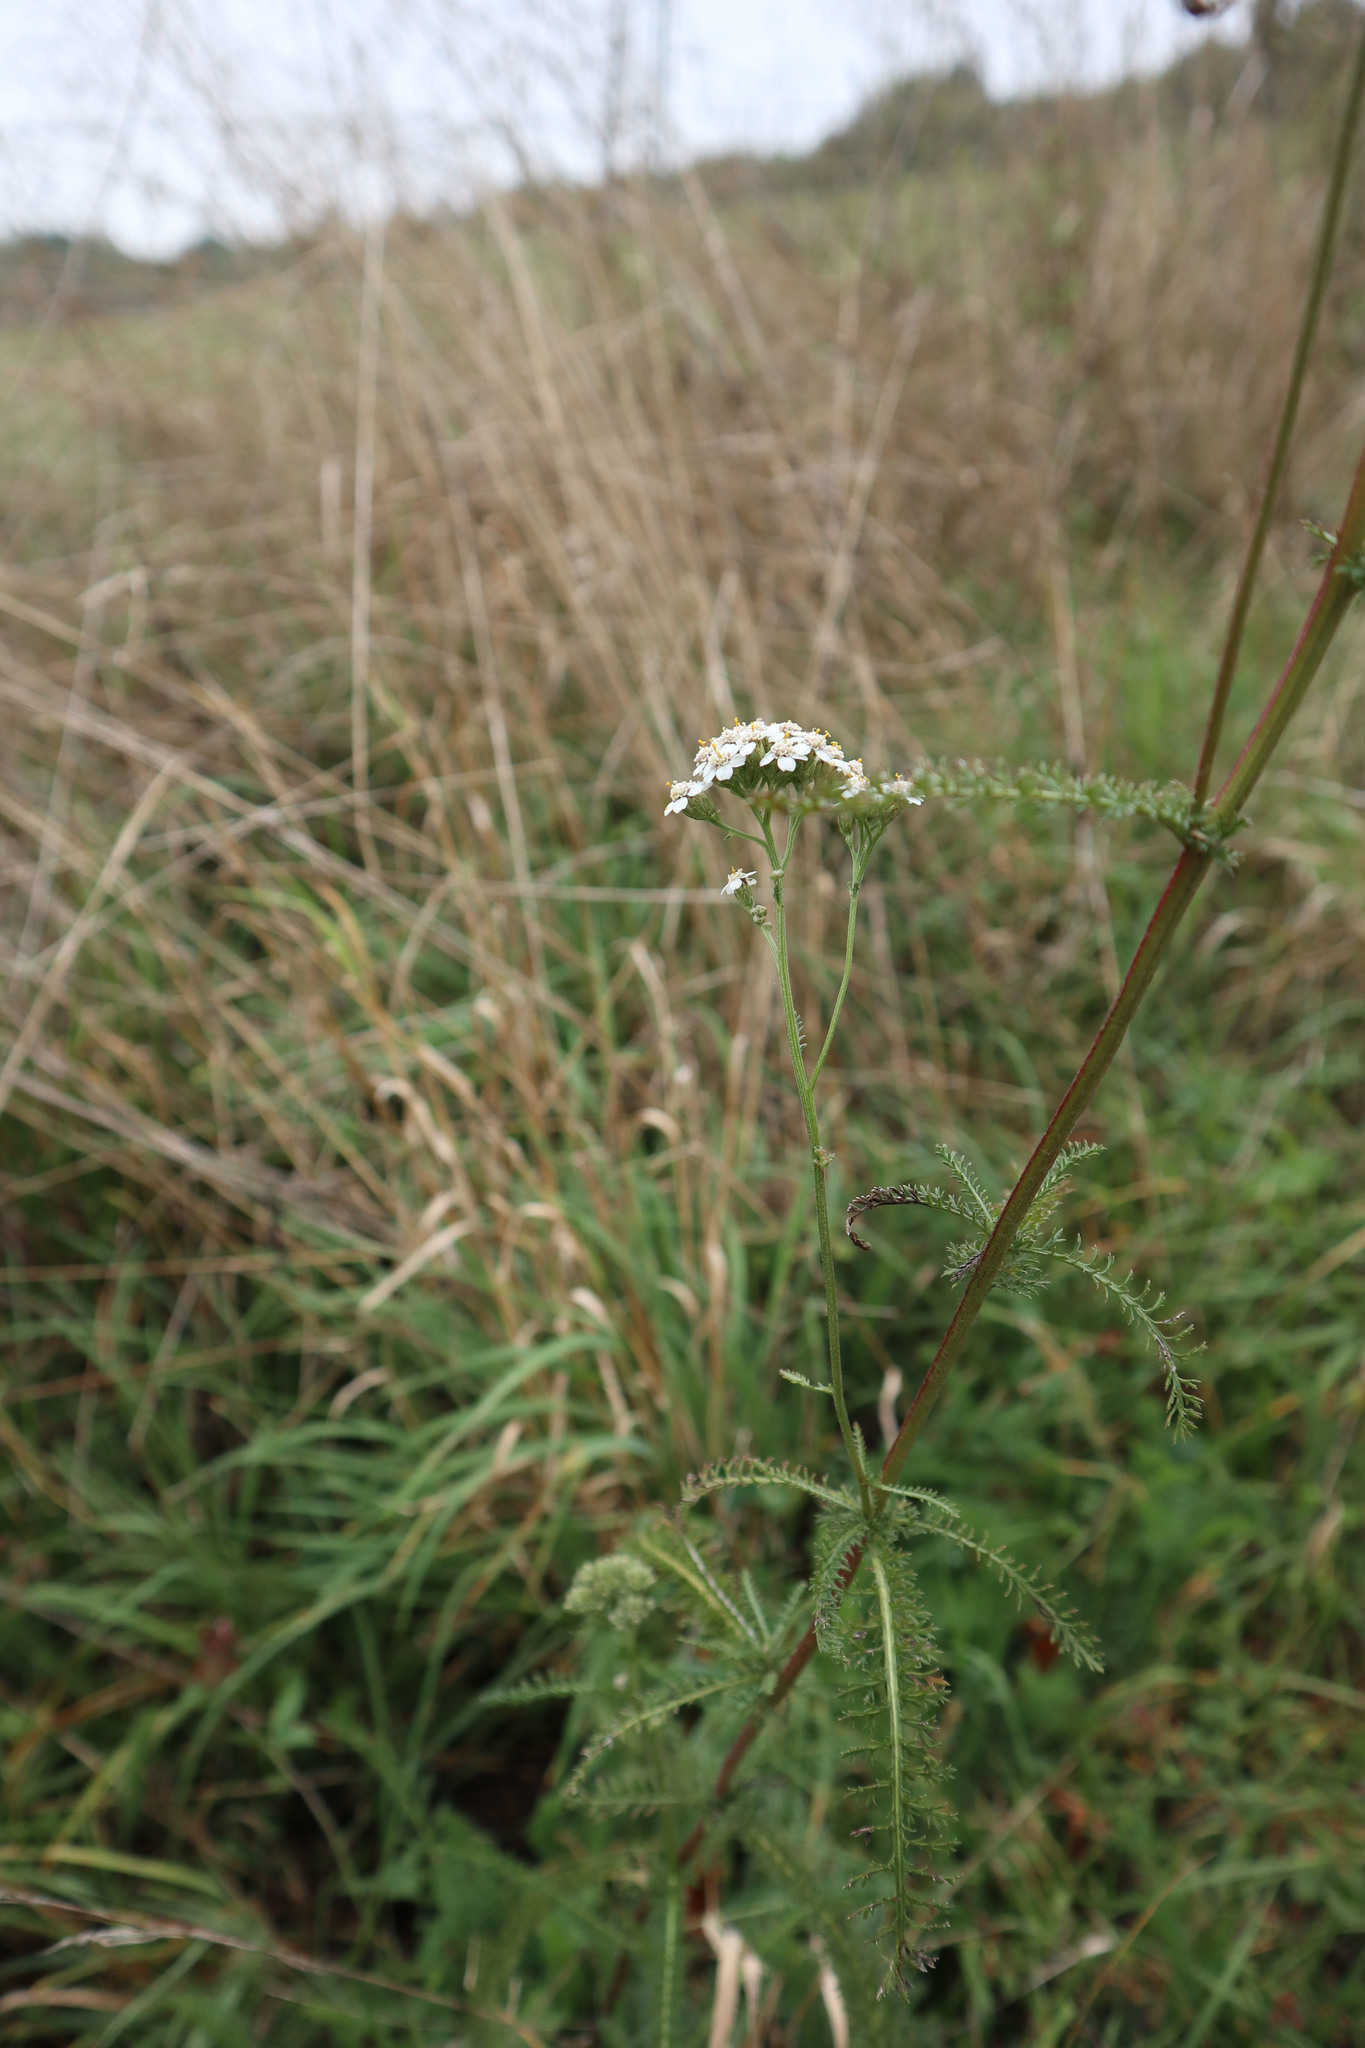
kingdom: Plantae
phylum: Tracheophyta
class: Magnoliopsida
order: Asterales
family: Asteraceae
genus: Achillea
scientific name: Achillea millefolium
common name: Yarrow
